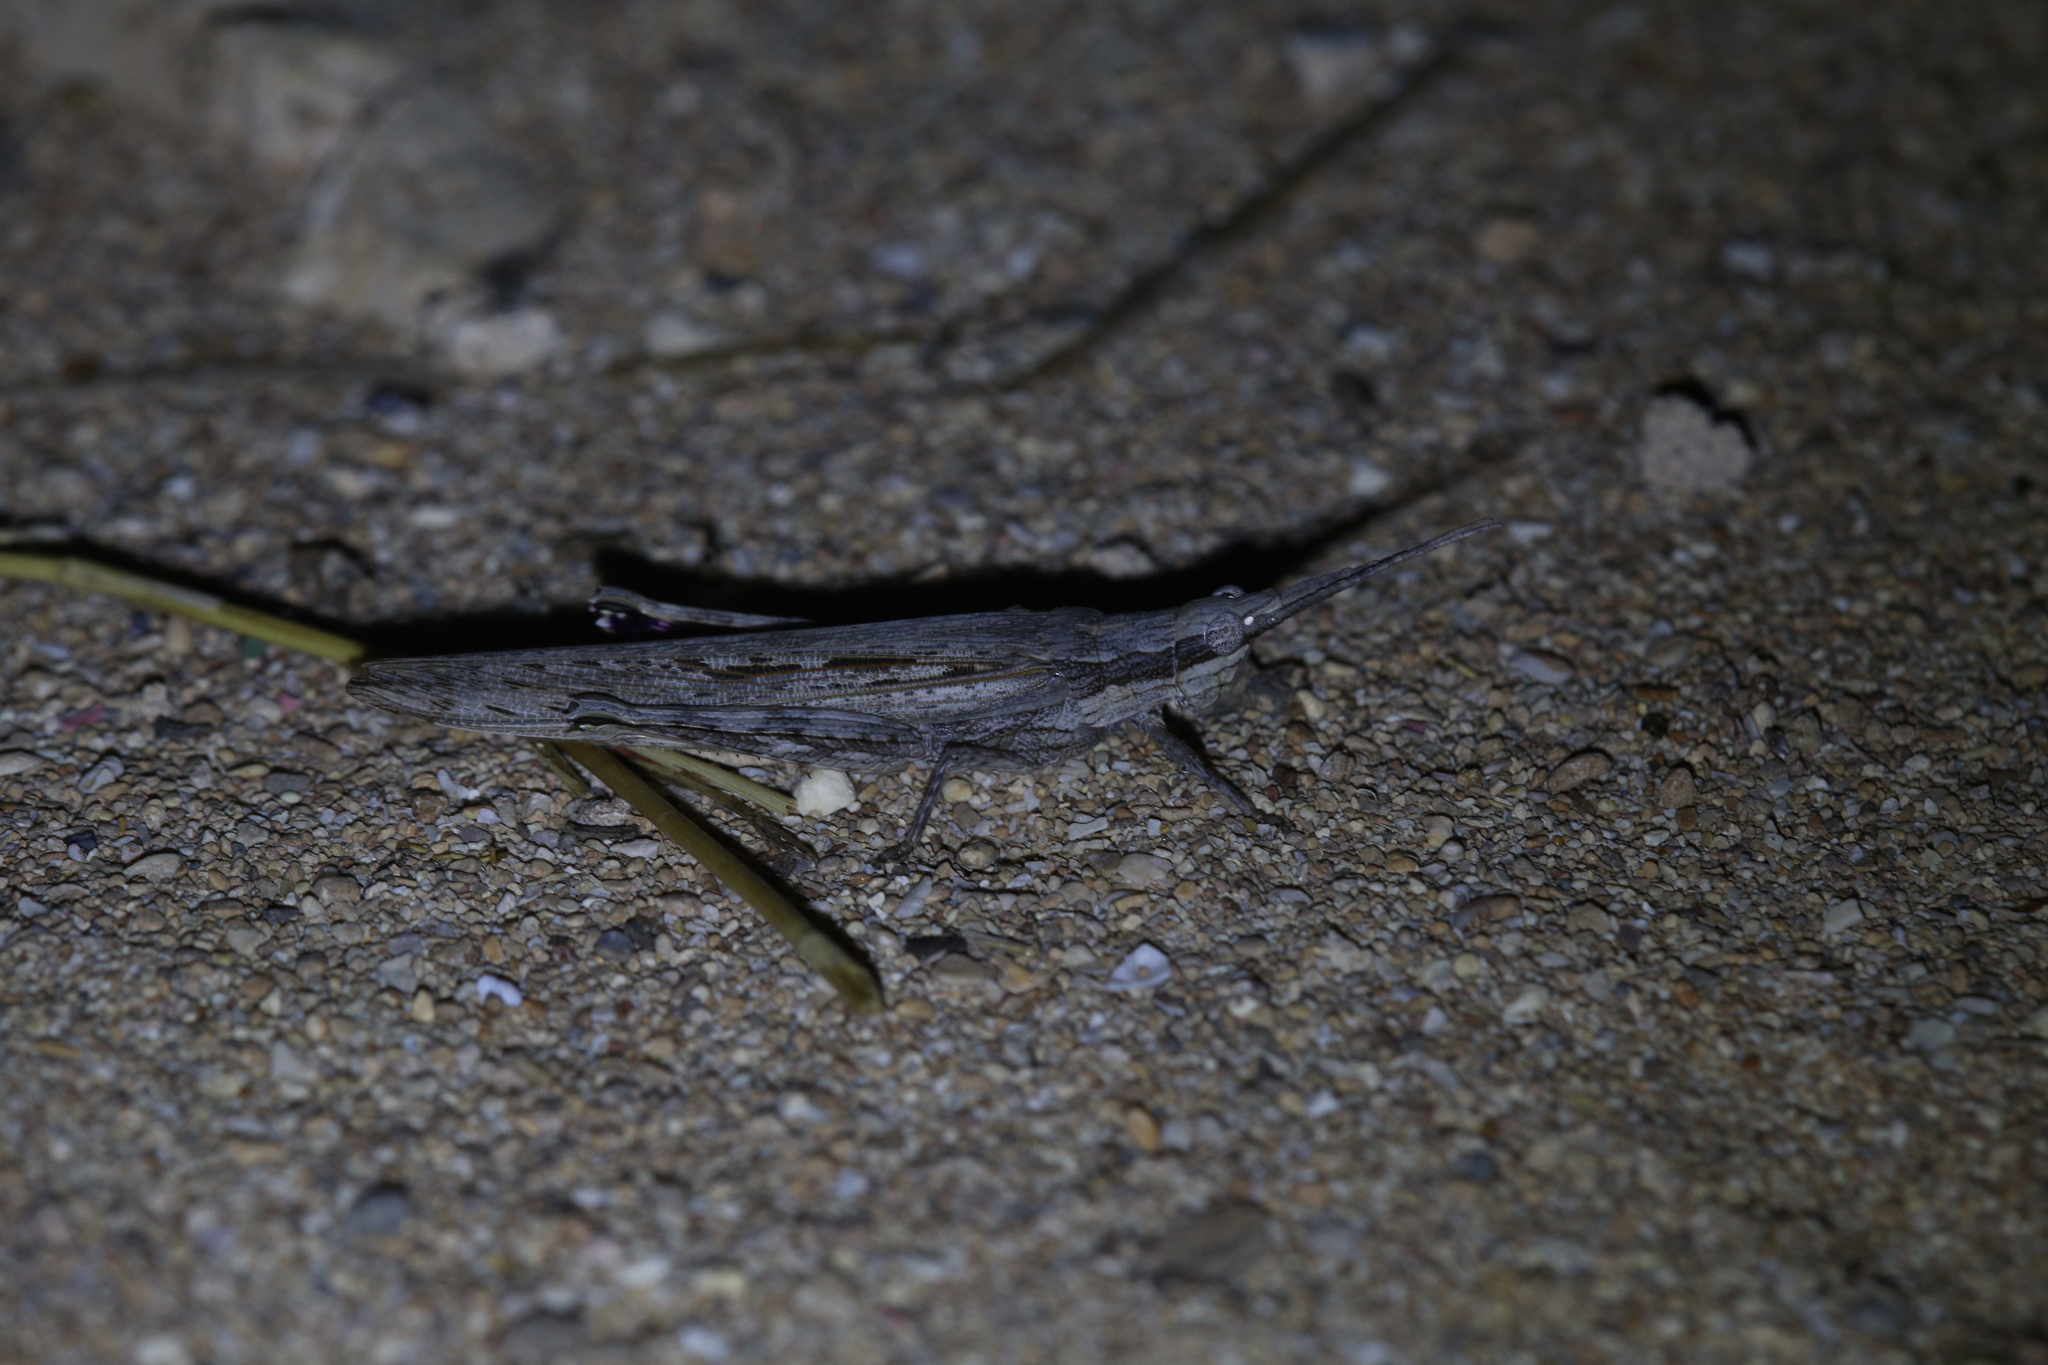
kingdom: Animalia
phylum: Arthropoda
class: Insecta
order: Orthoptera
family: Acrididae
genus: Coryphistes
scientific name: Coryphistes ruricola
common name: Bark-mimicking grasshopper
